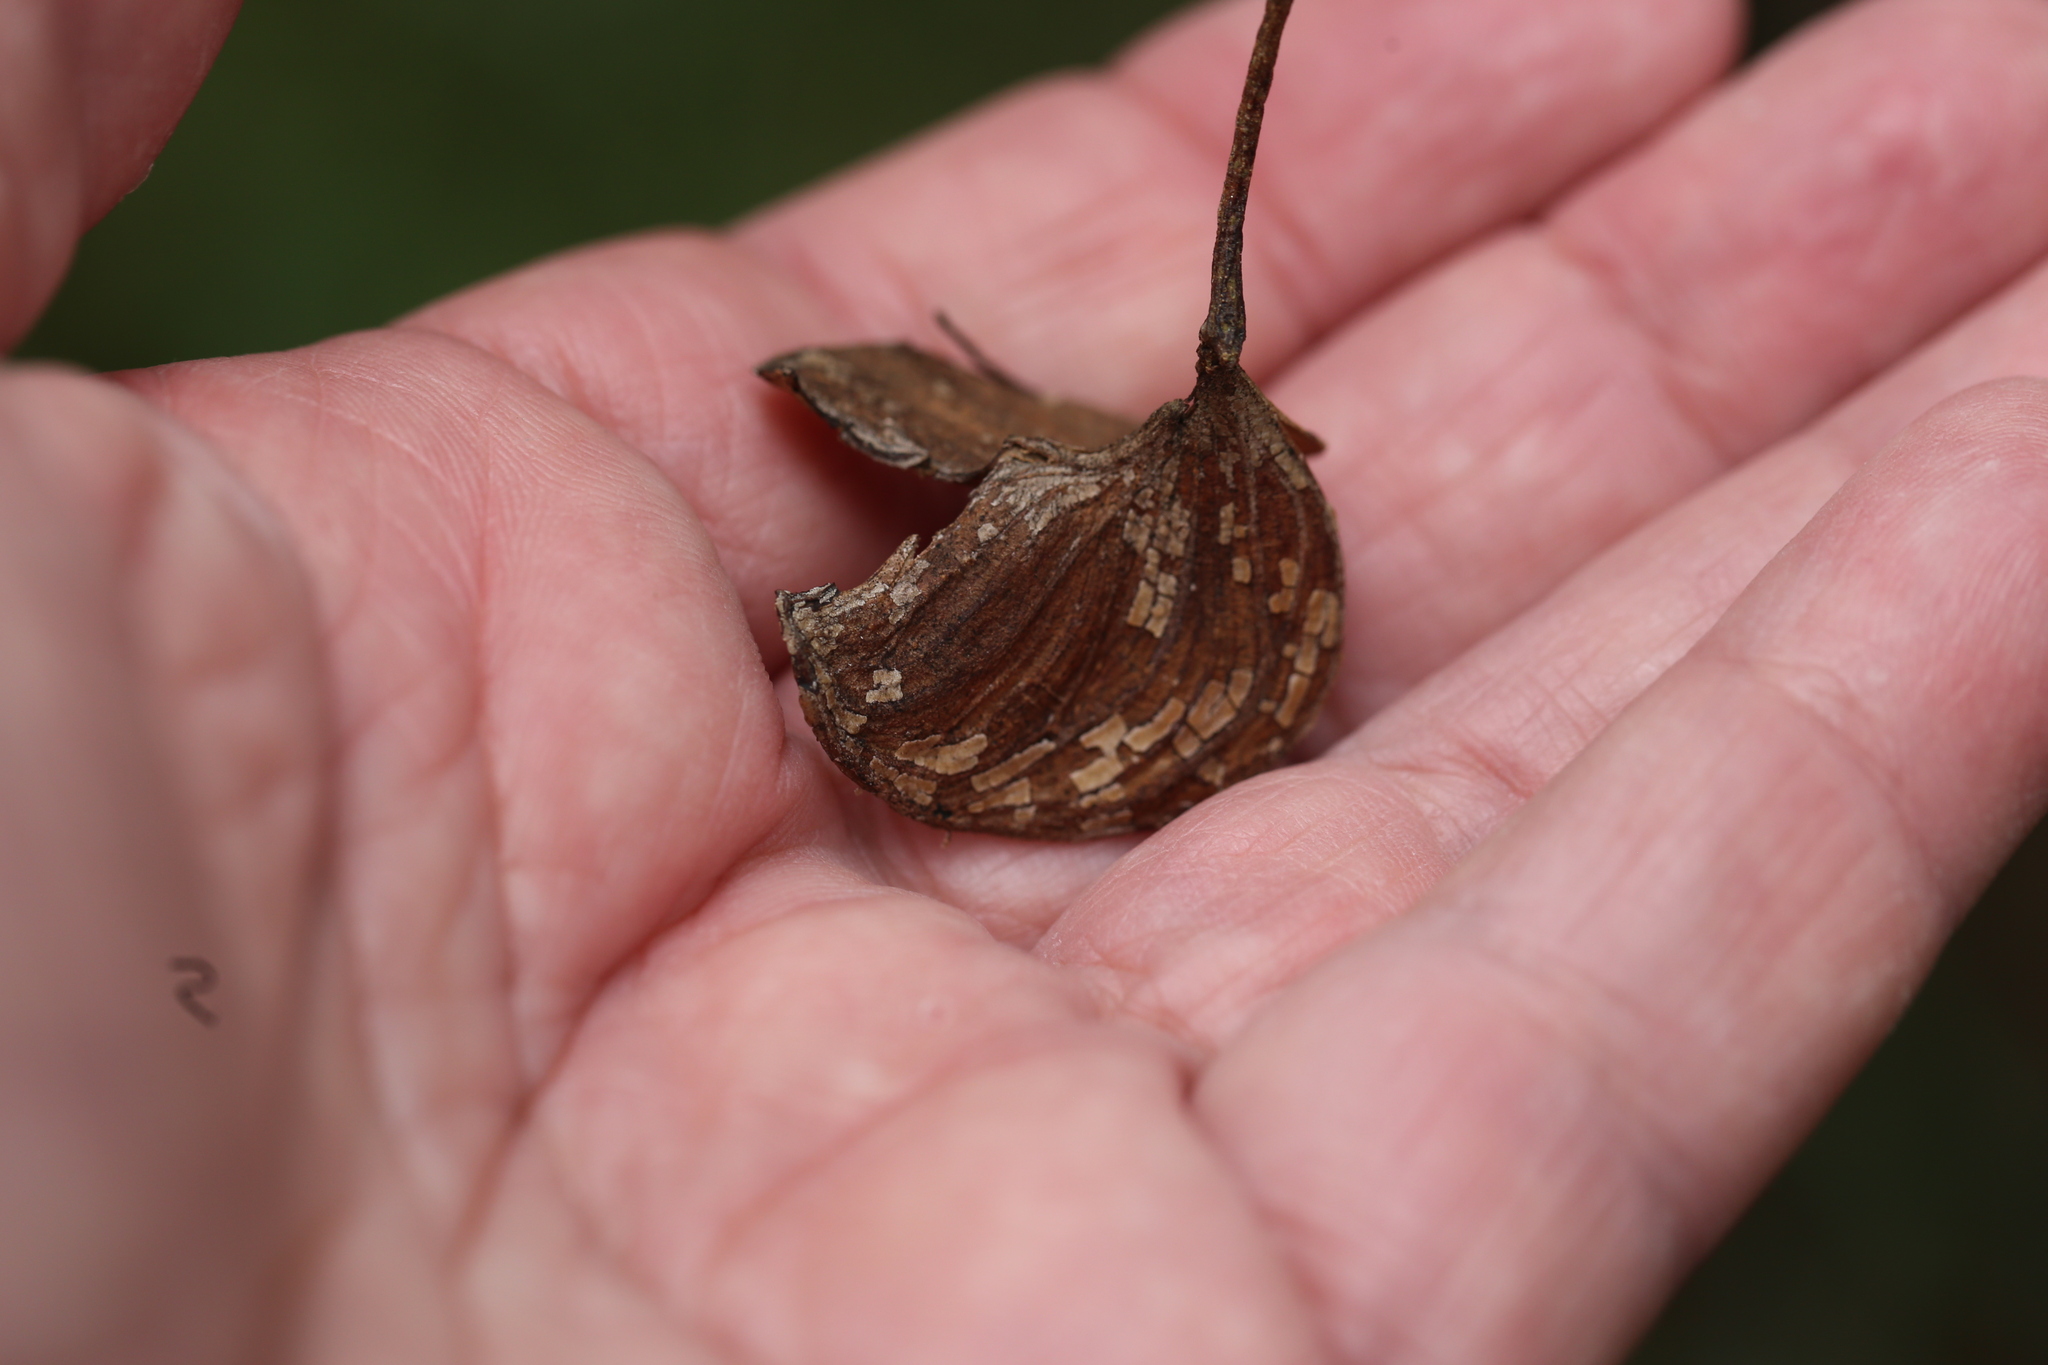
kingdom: Plantae
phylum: Tracheophyta
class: Magnoliopsida
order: Fabales
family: Fabaceae
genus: Acacia
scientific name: Acacia disparrima
